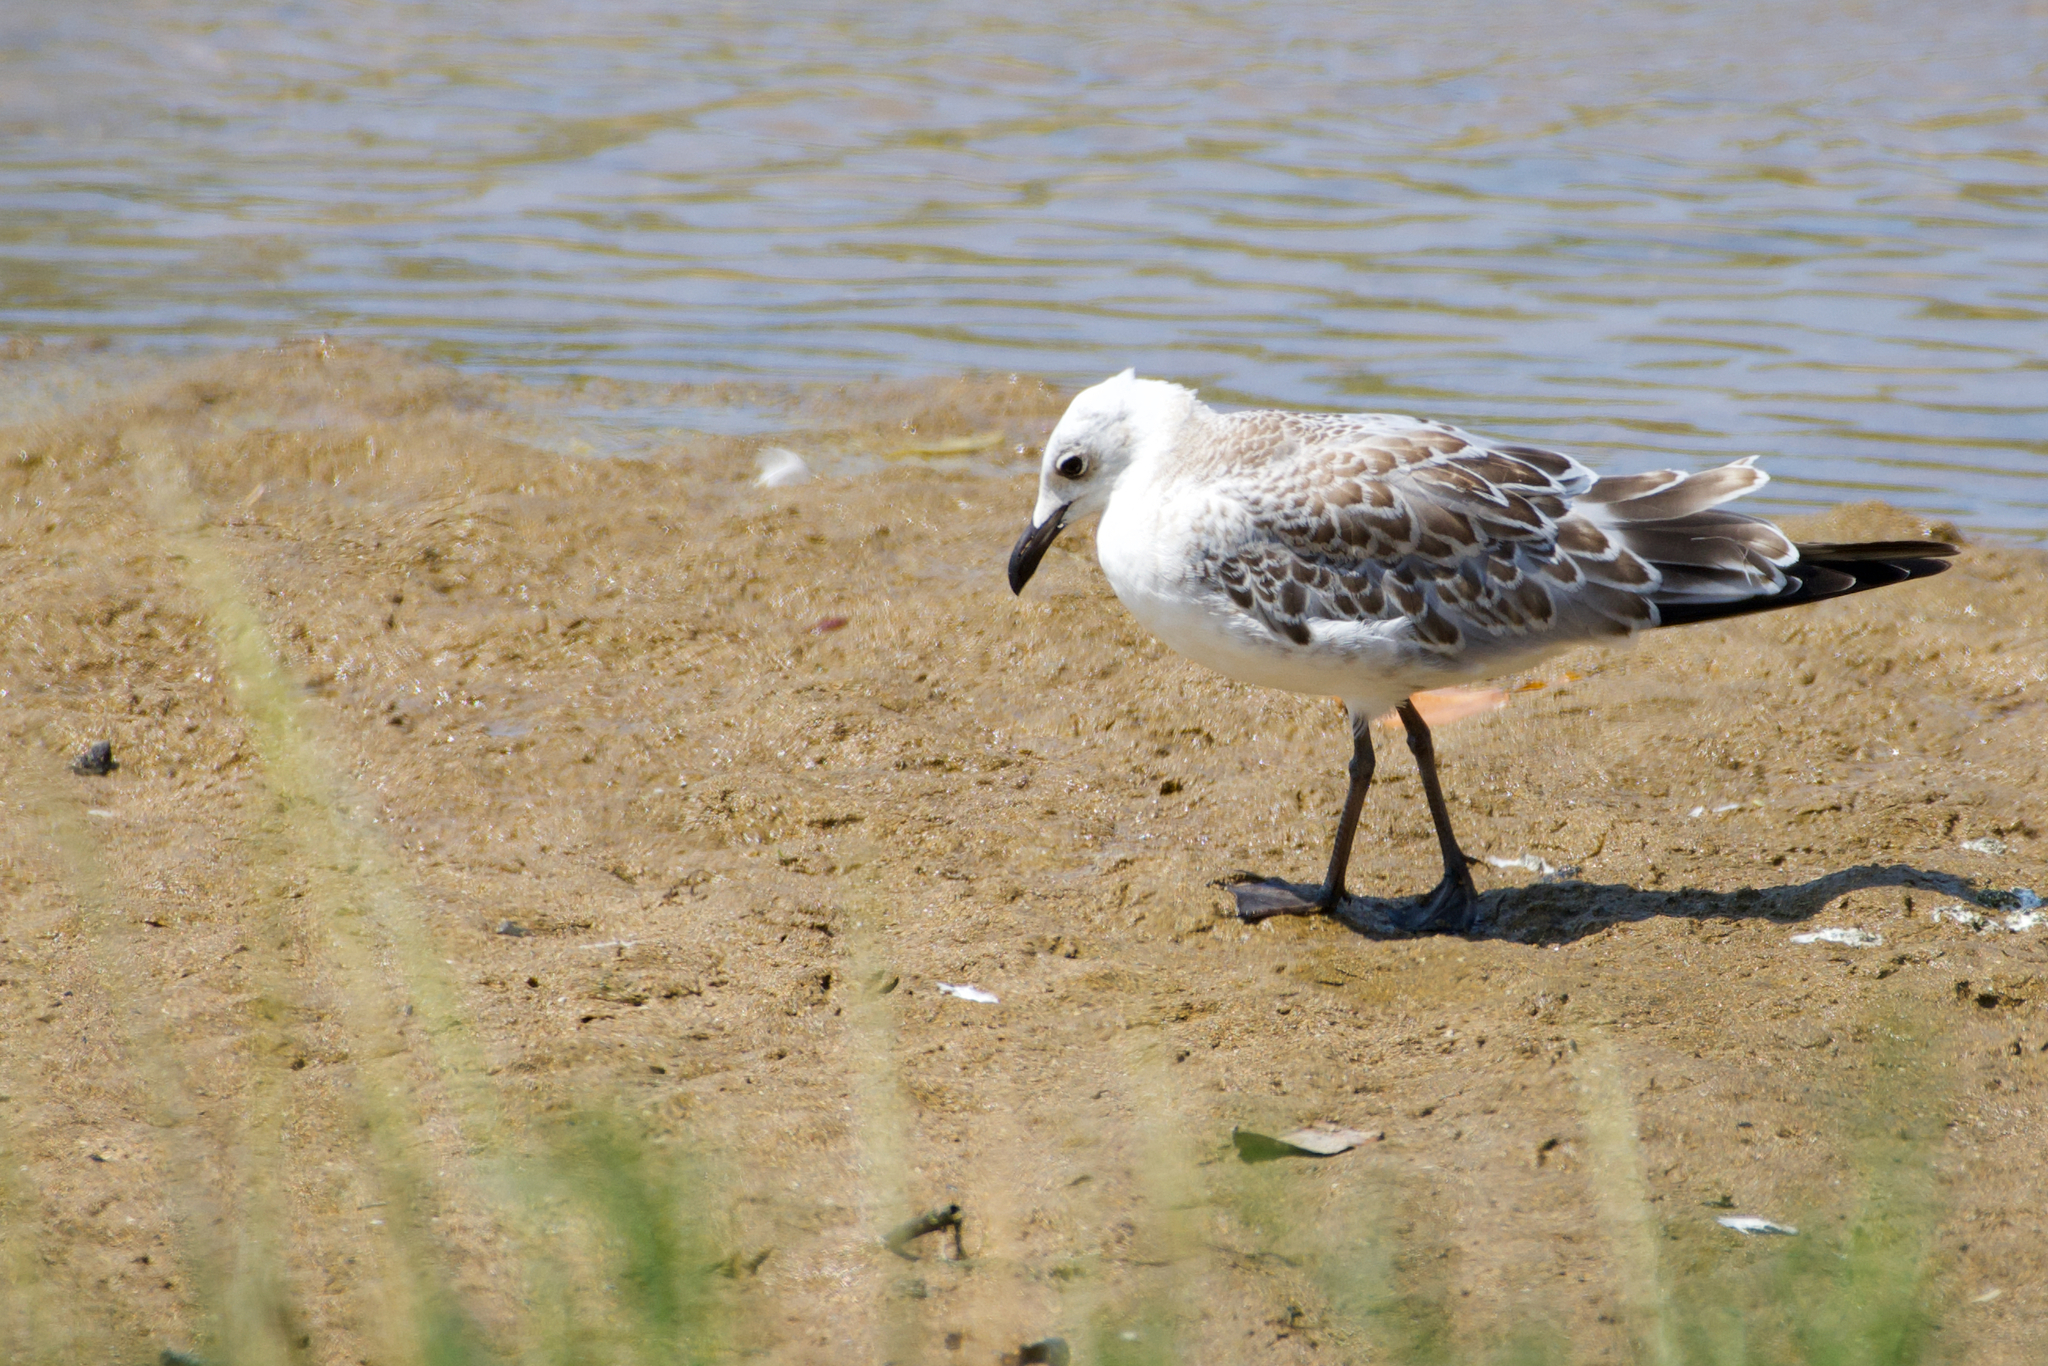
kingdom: Animalia
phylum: Chordata
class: Aves
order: Charadriiformes
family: Laridae
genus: Ichthyaetus
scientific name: Ichthyaetus melanocephalus
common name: Mediterranean gull
